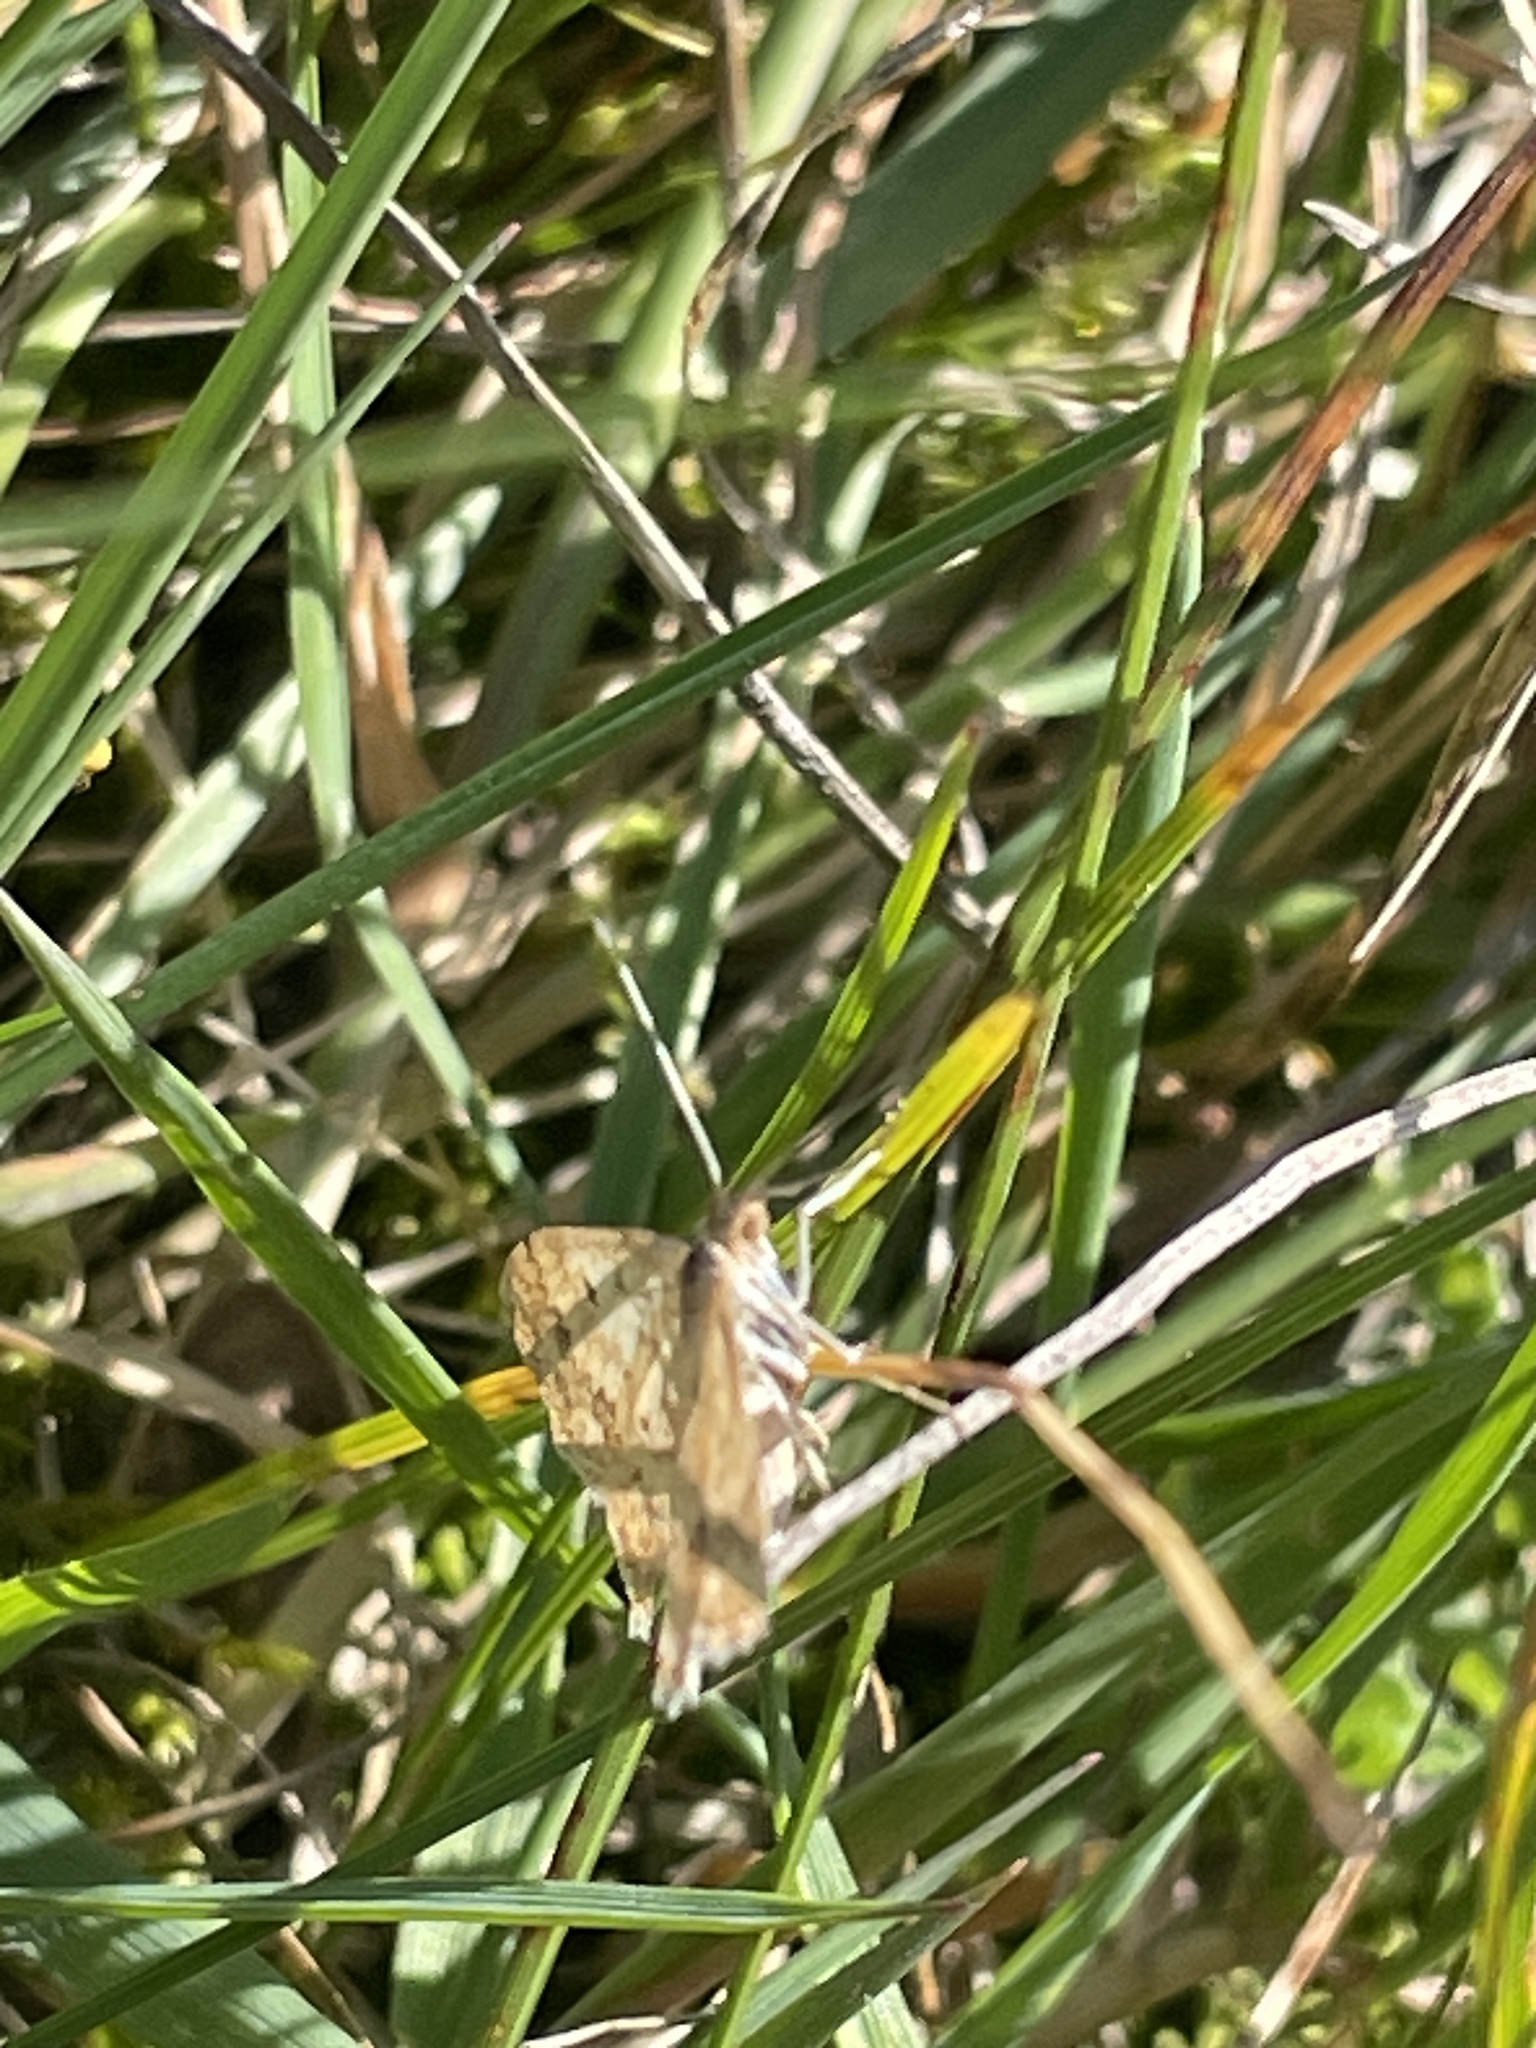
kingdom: Animalia
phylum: Arthropoda
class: Insecta
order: Lepidoptera
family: Geometridae
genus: Scopula
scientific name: Scopula rubraria
